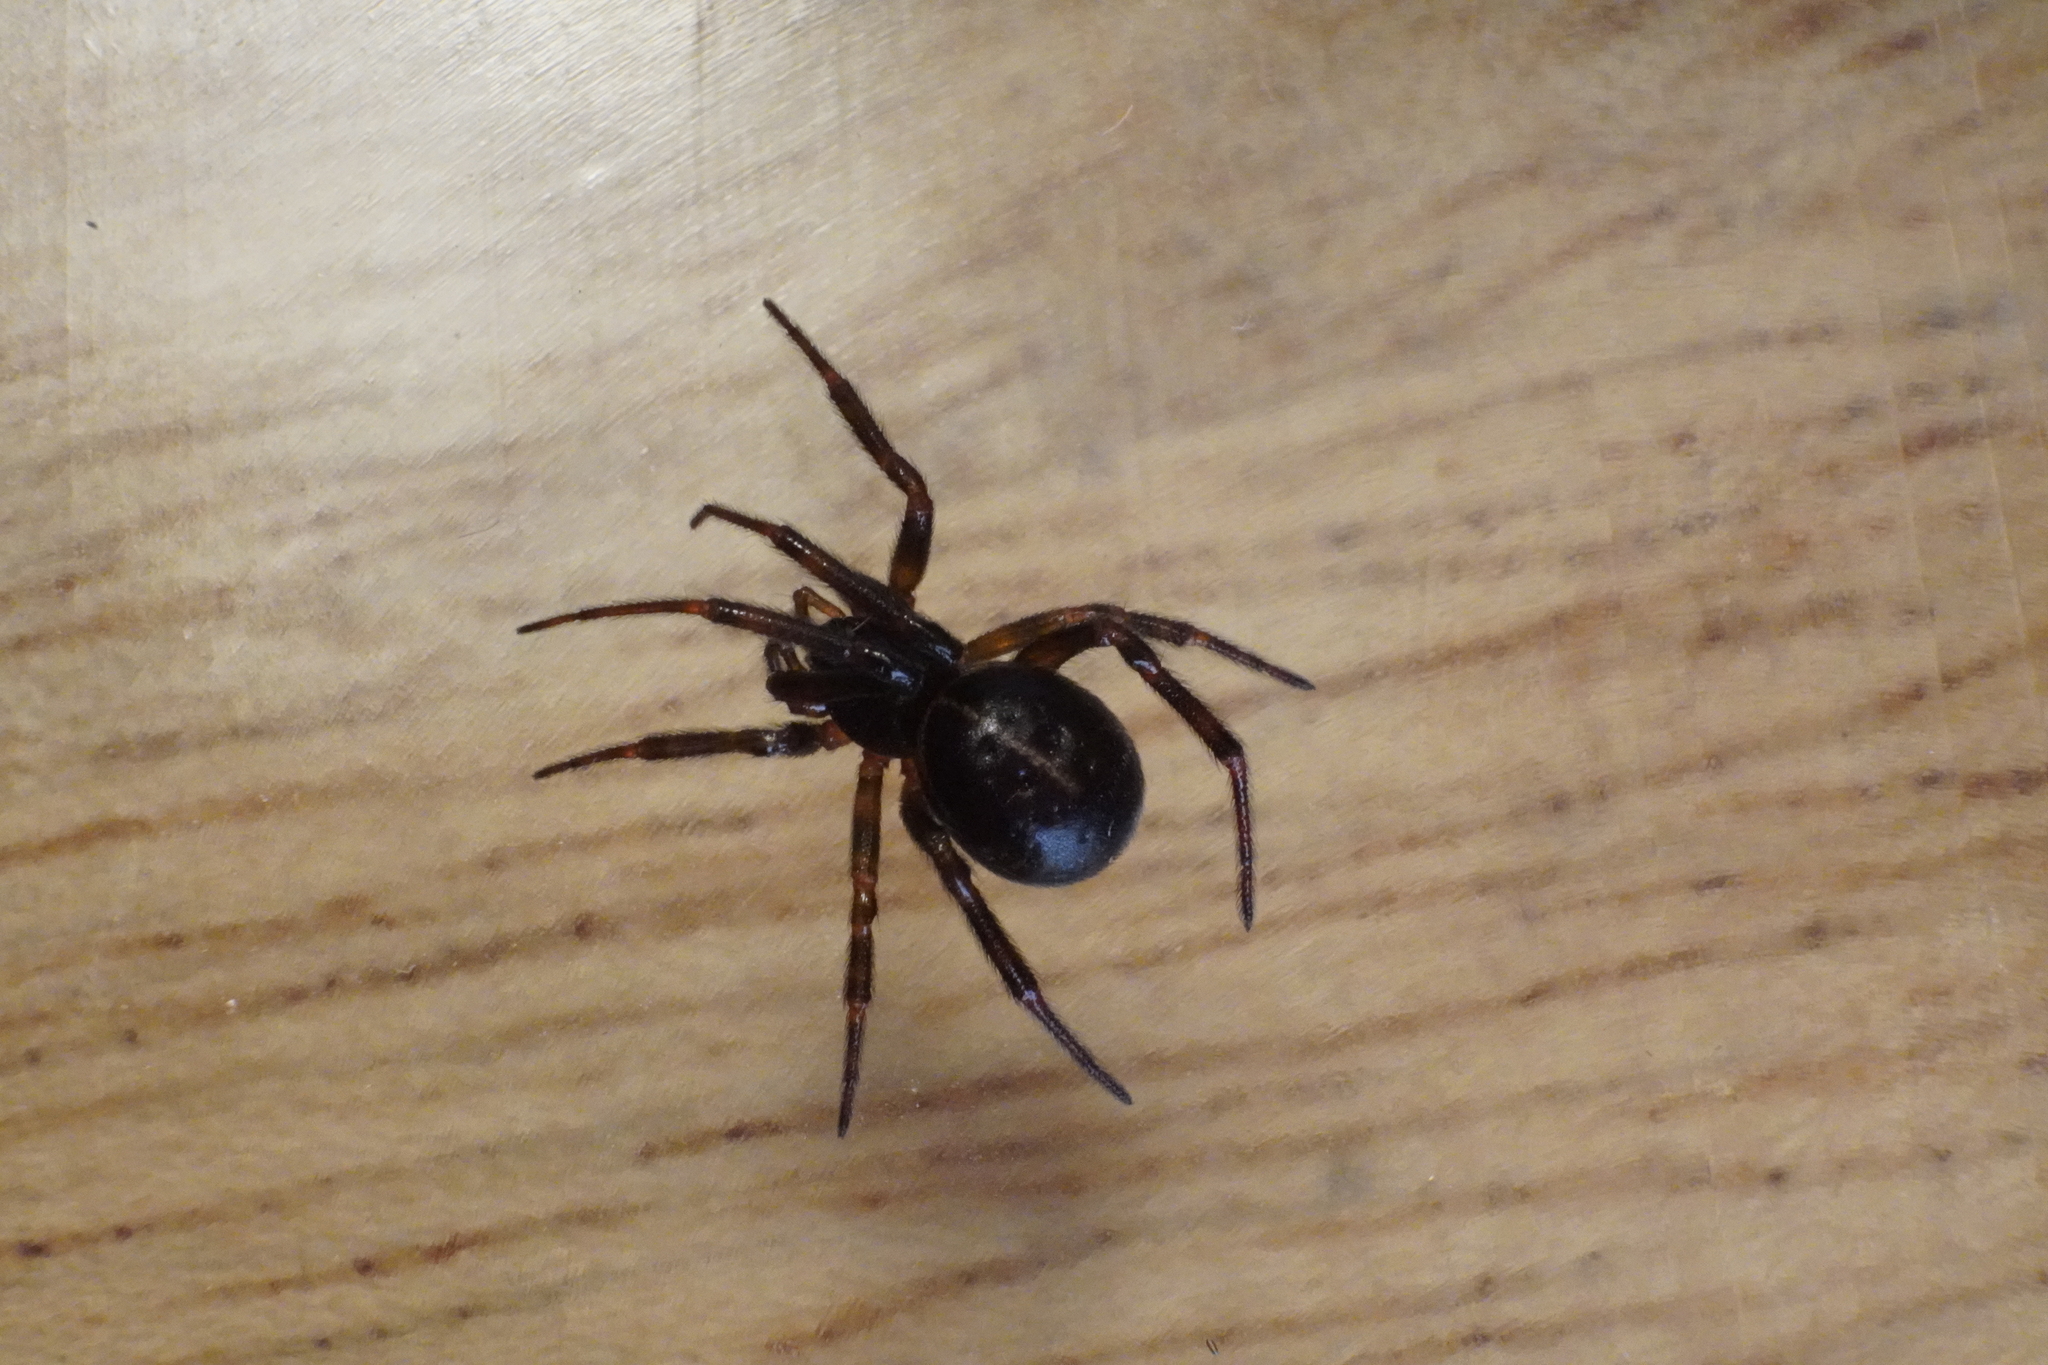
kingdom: Animalia
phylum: Arthropoda
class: Arachnida
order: Araneae
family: Theridiidae
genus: Steatoda
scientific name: Steatoda borealis
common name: Boreal combfoot
